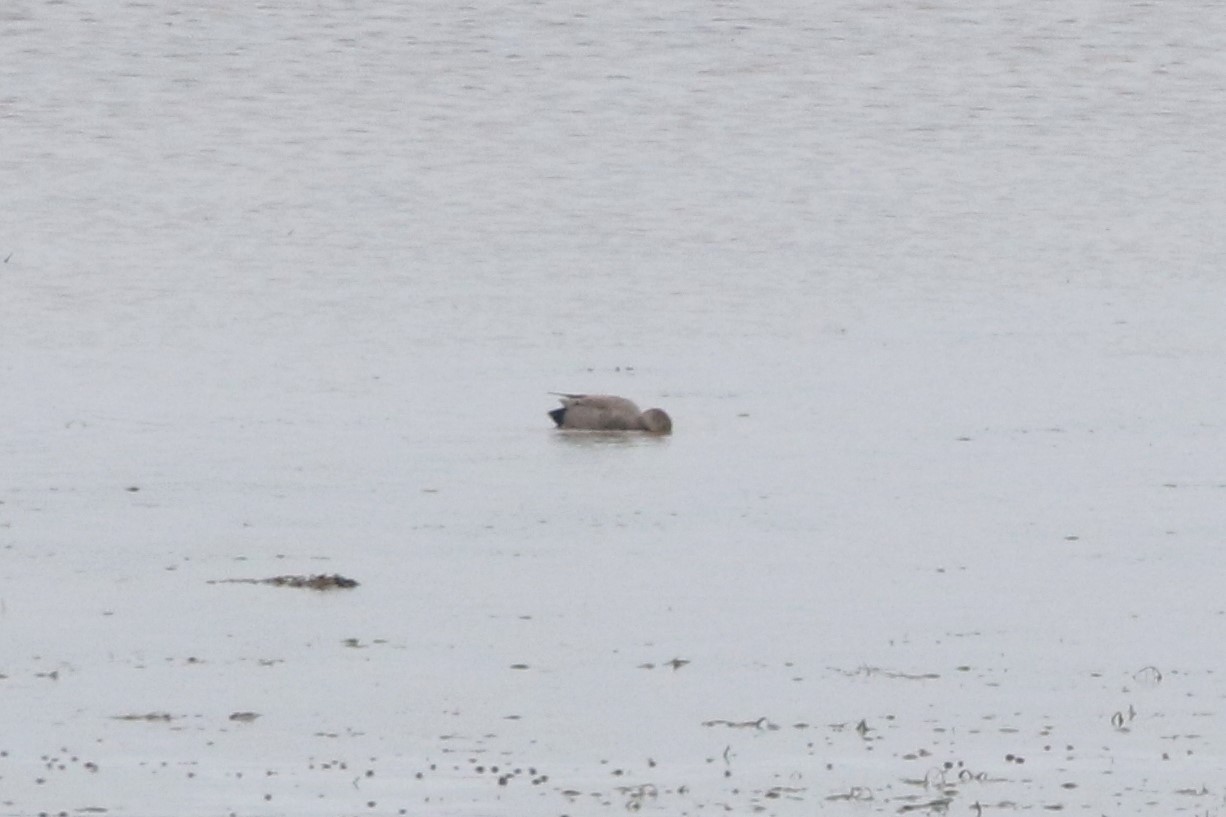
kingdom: Animalia
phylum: Chordata
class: Aves
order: Anseriformes
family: Anatidae
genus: Mareca
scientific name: Mareca strepera
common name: Gadwall
